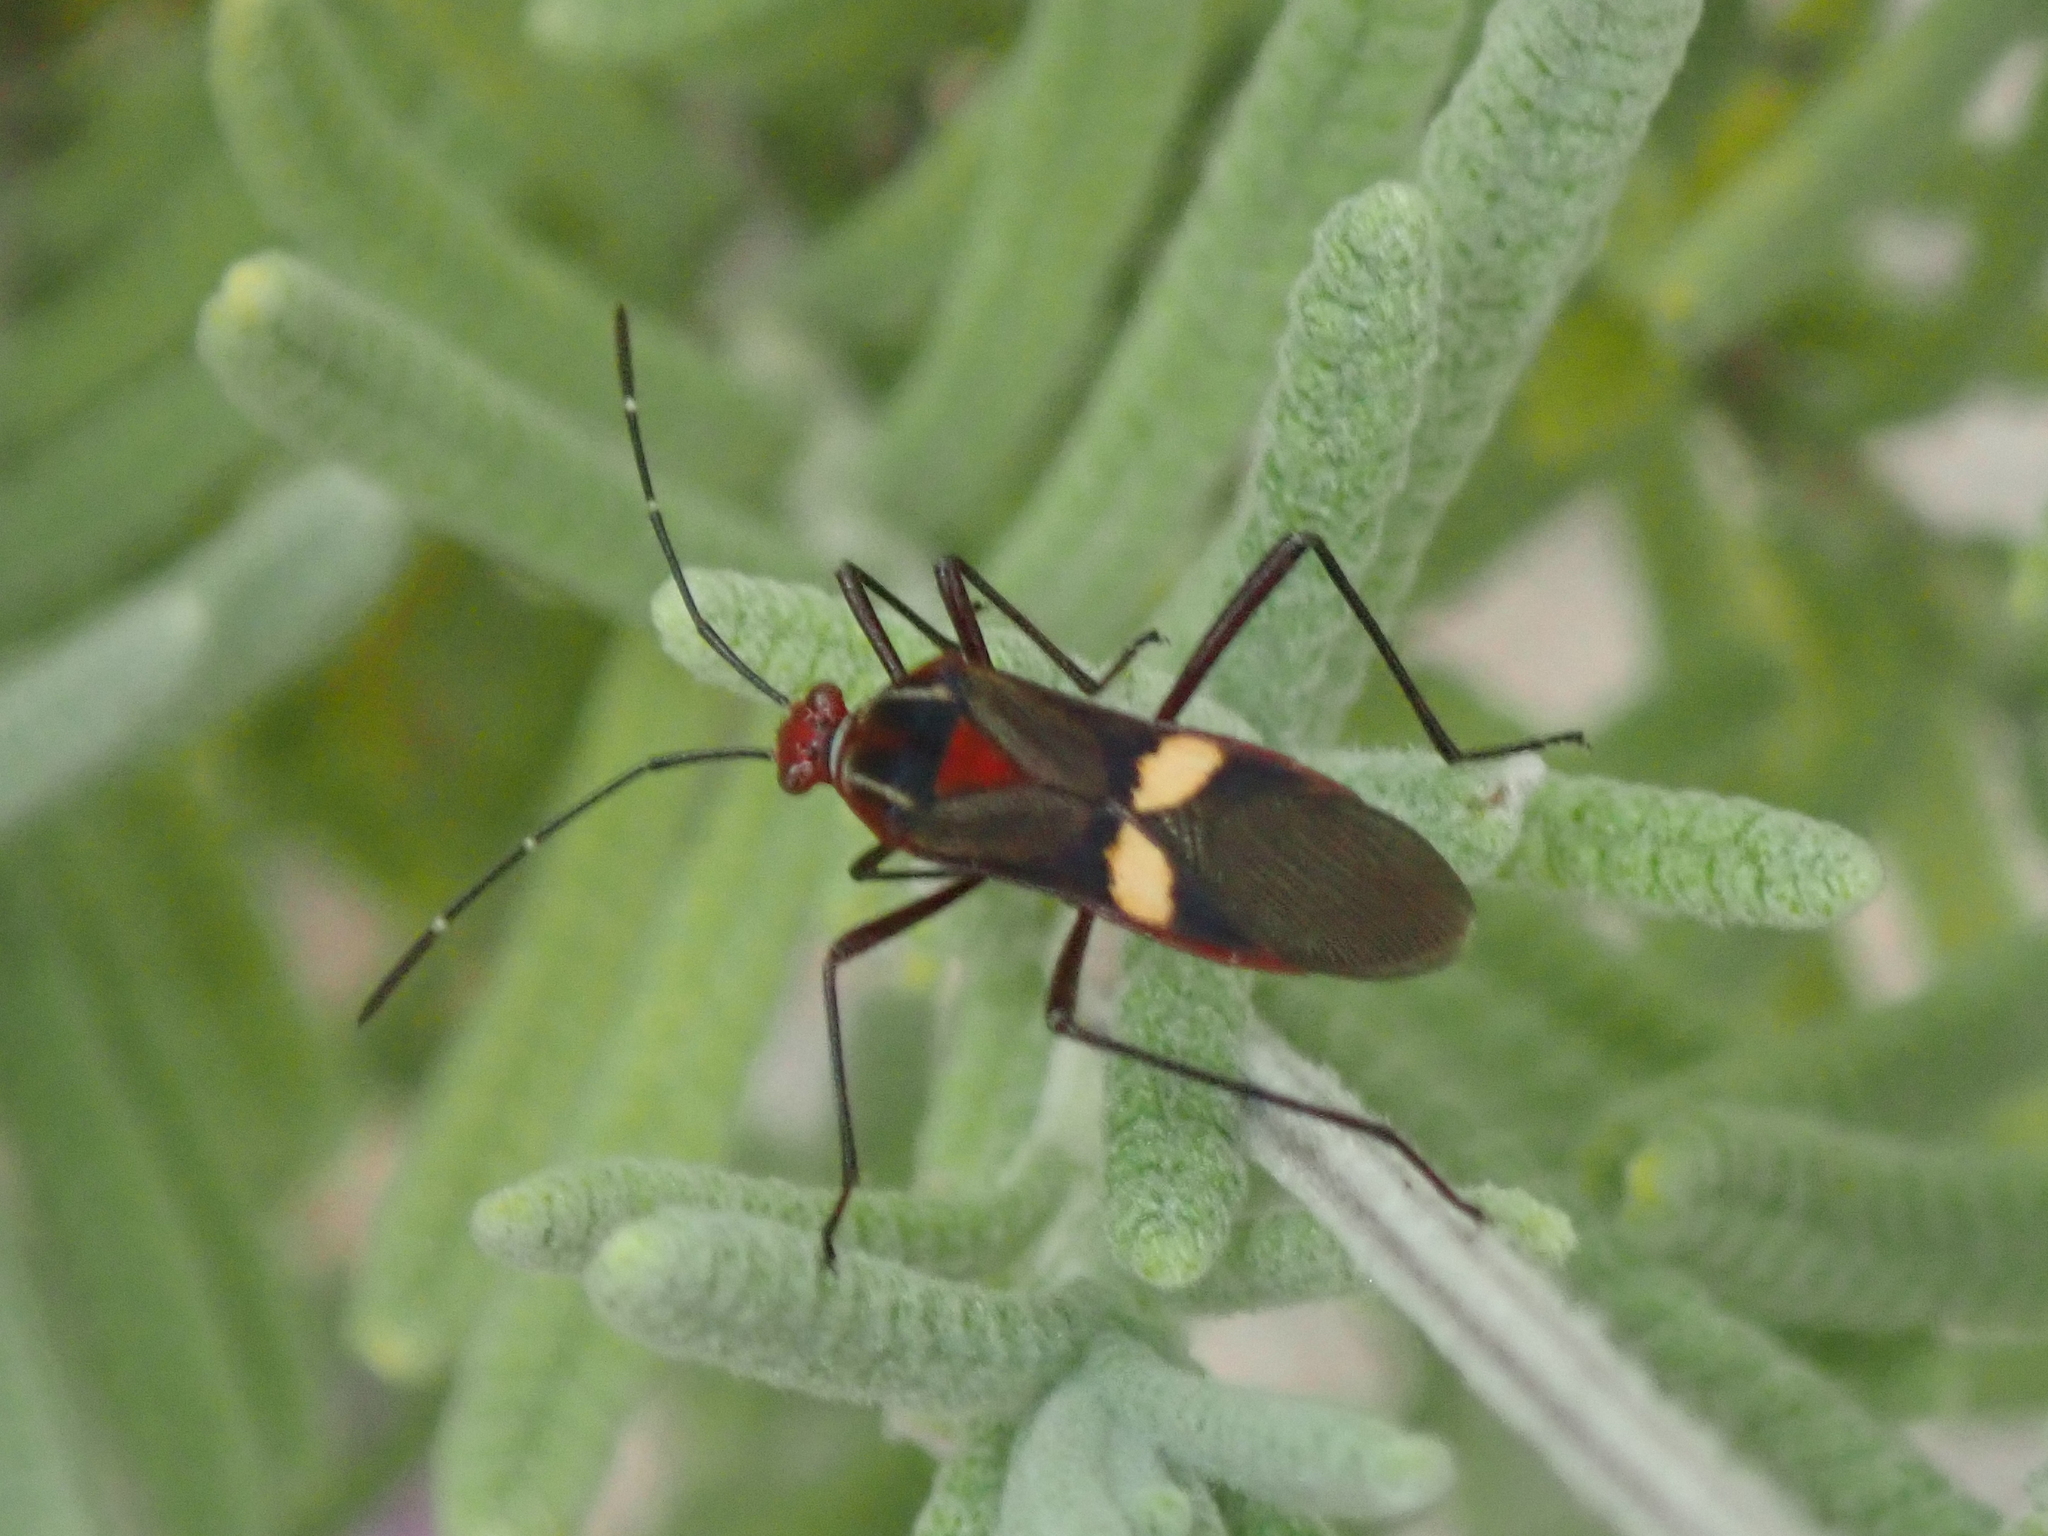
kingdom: Animalia
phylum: Arthropoda
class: Insecta
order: Hemiptera
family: Coreidae
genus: Hypselonotus
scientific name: Hypselonotus interruptus
